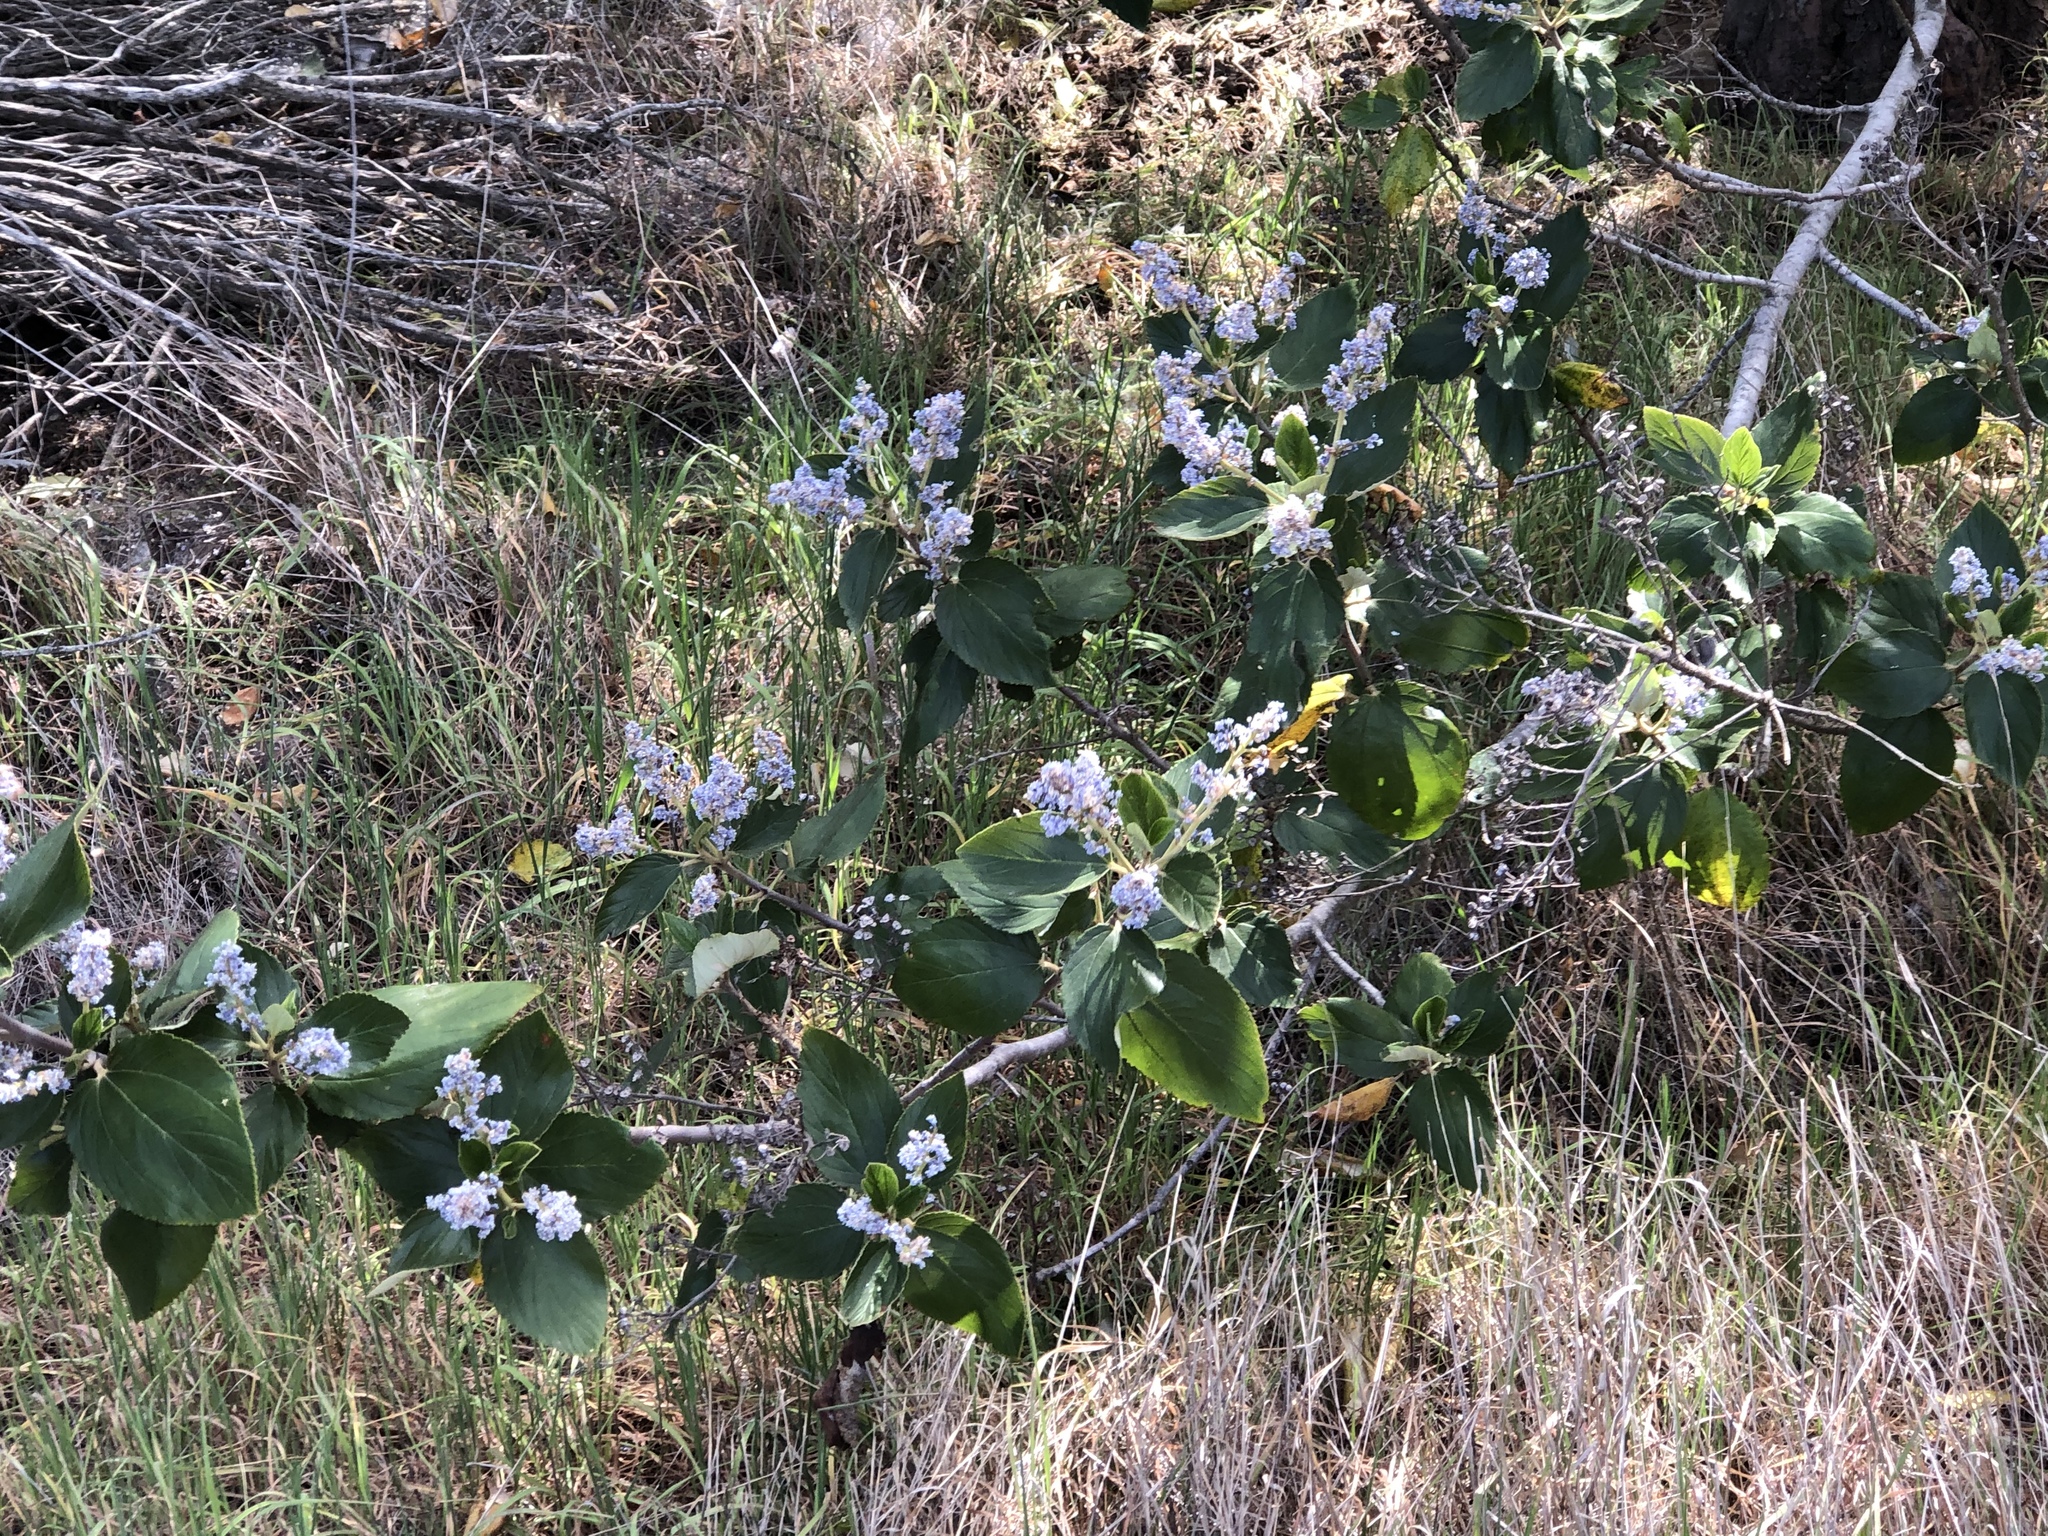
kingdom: Plantae
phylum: Tracheophyta
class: Magnoliopsida
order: Rosales
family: Rhamnaceae
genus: Ceanothus
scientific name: Ceanothus arboreus
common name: Catalina mountain-lilac
